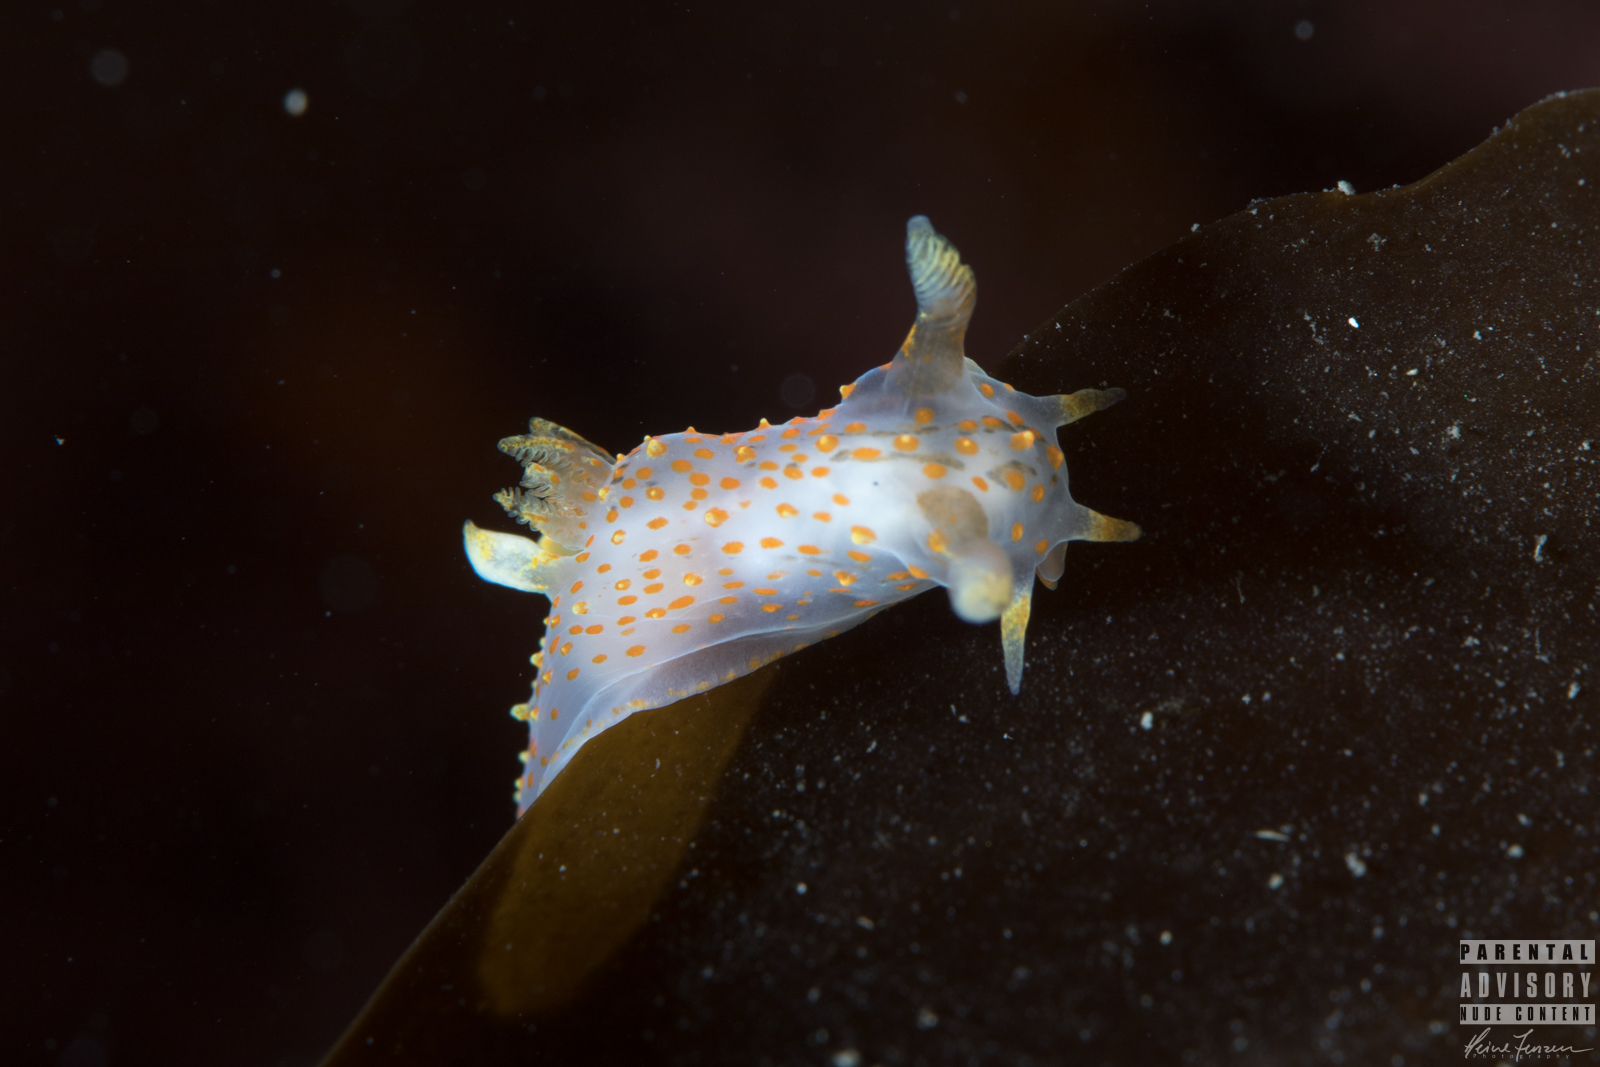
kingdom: Animalia
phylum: Mollusca
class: Gastropoda
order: Nudibranchia
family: Polyceridae
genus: Polycera
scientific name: Polycera quadrilineata
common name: Four-striped polycera
